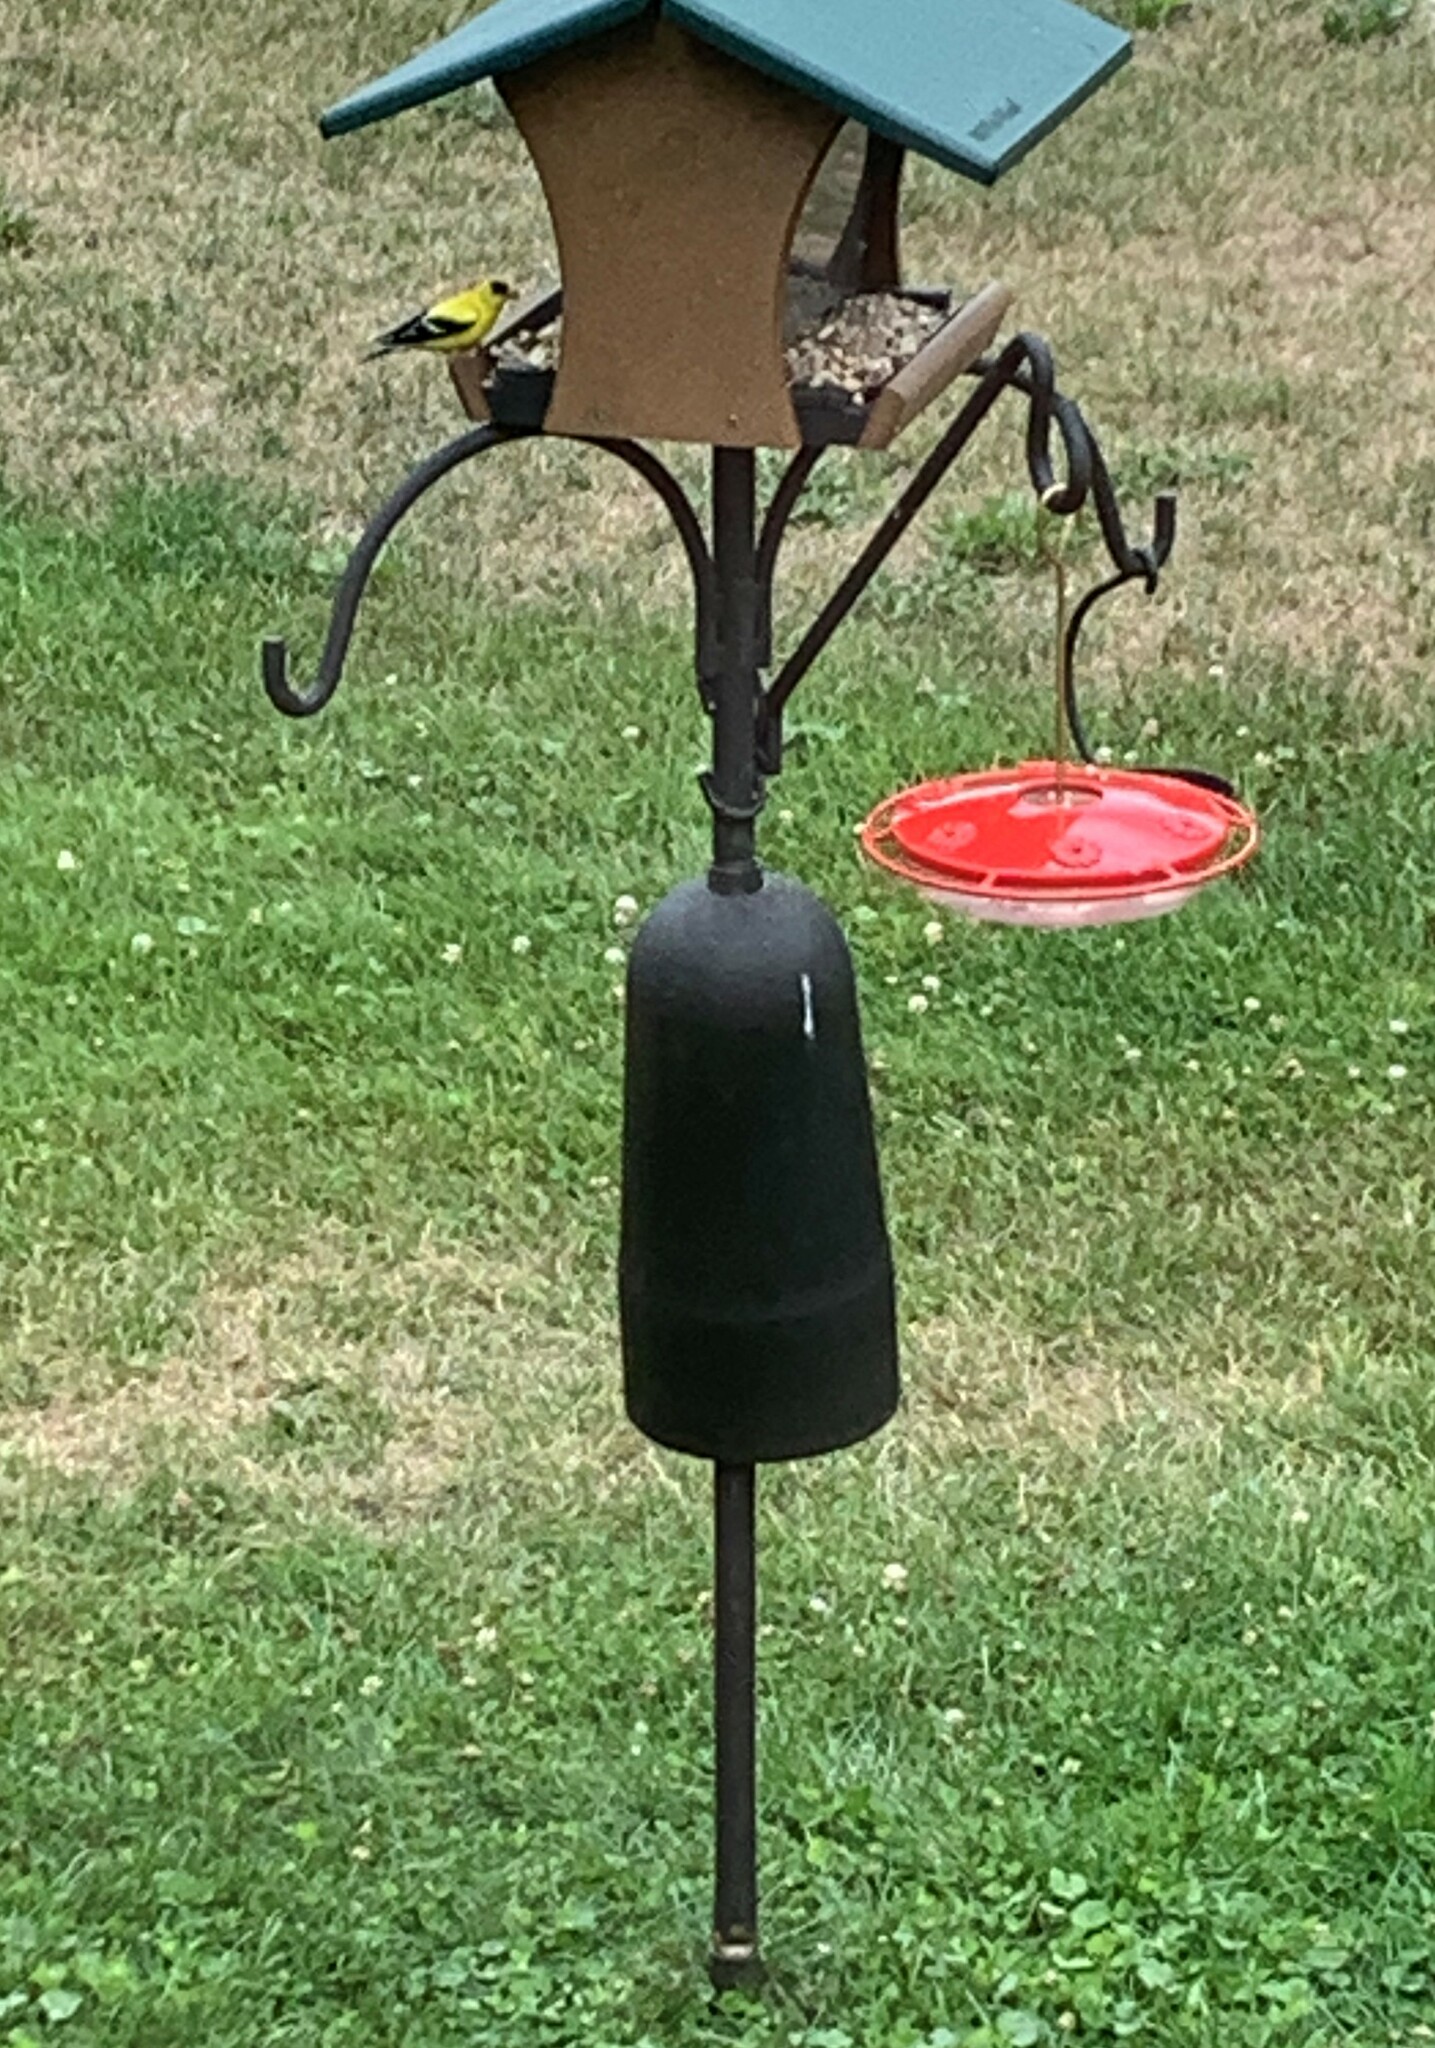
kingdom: Animalia
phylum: Chordata
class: Aves
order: Passeriformes
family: Fringillidae
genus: Spinus
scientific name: Spinus tristis
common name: American goldfinch
